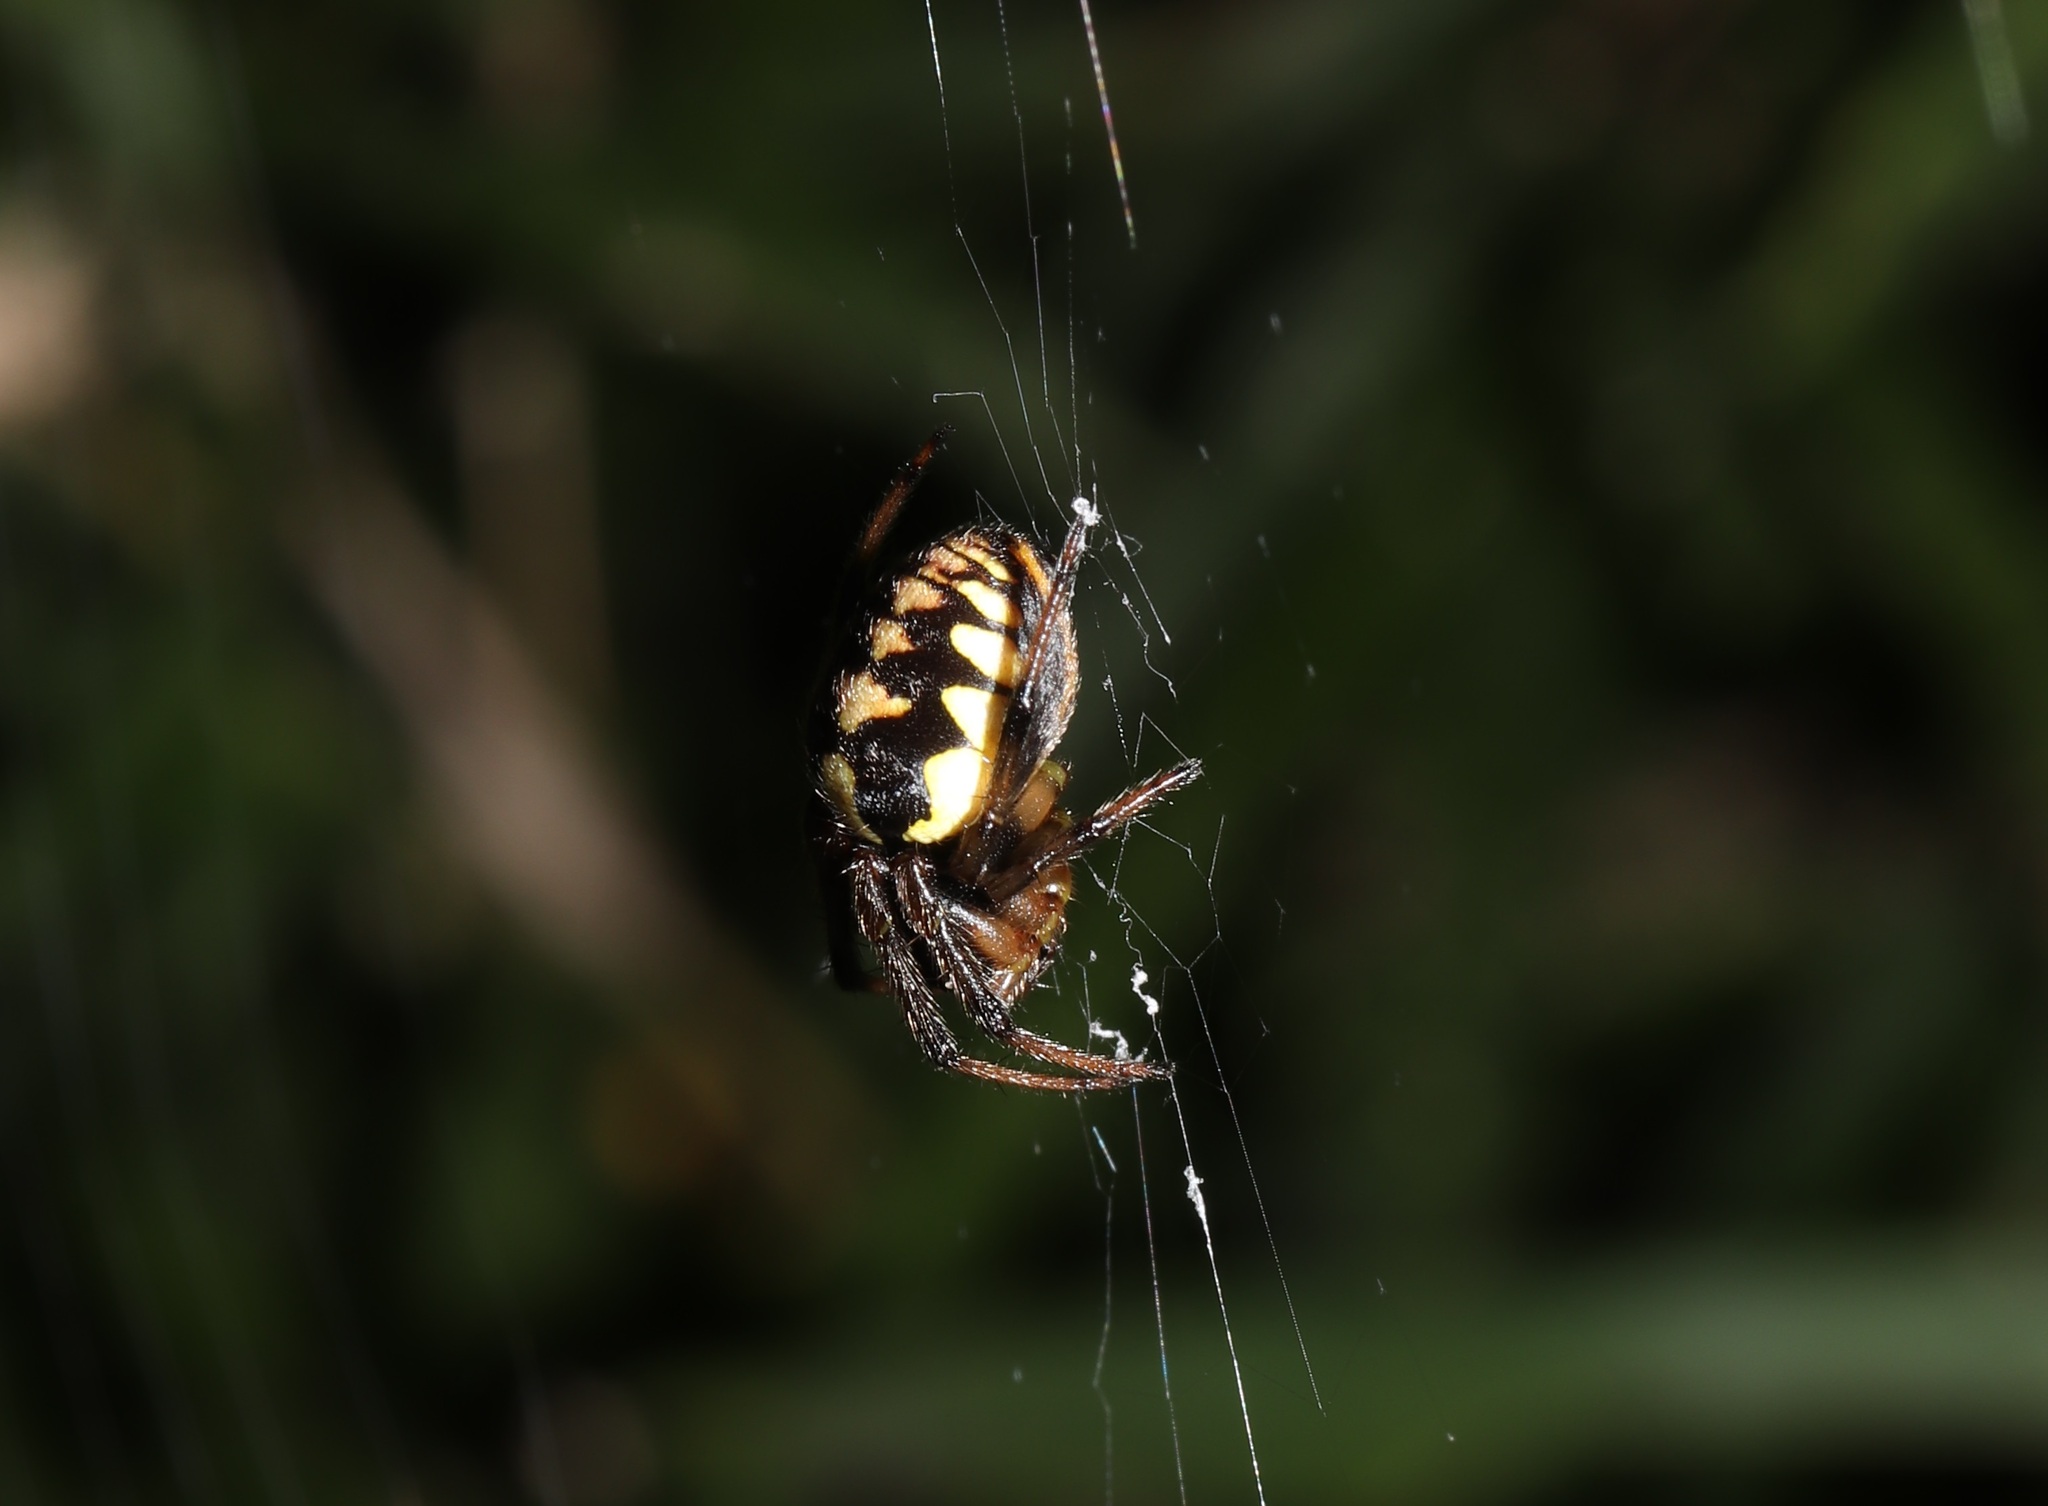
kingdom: Animalia
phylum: Arthropoda
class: Arachnida
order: Araneae
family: Araneidae
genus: Araneus
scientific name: Araneus ejusmodi
